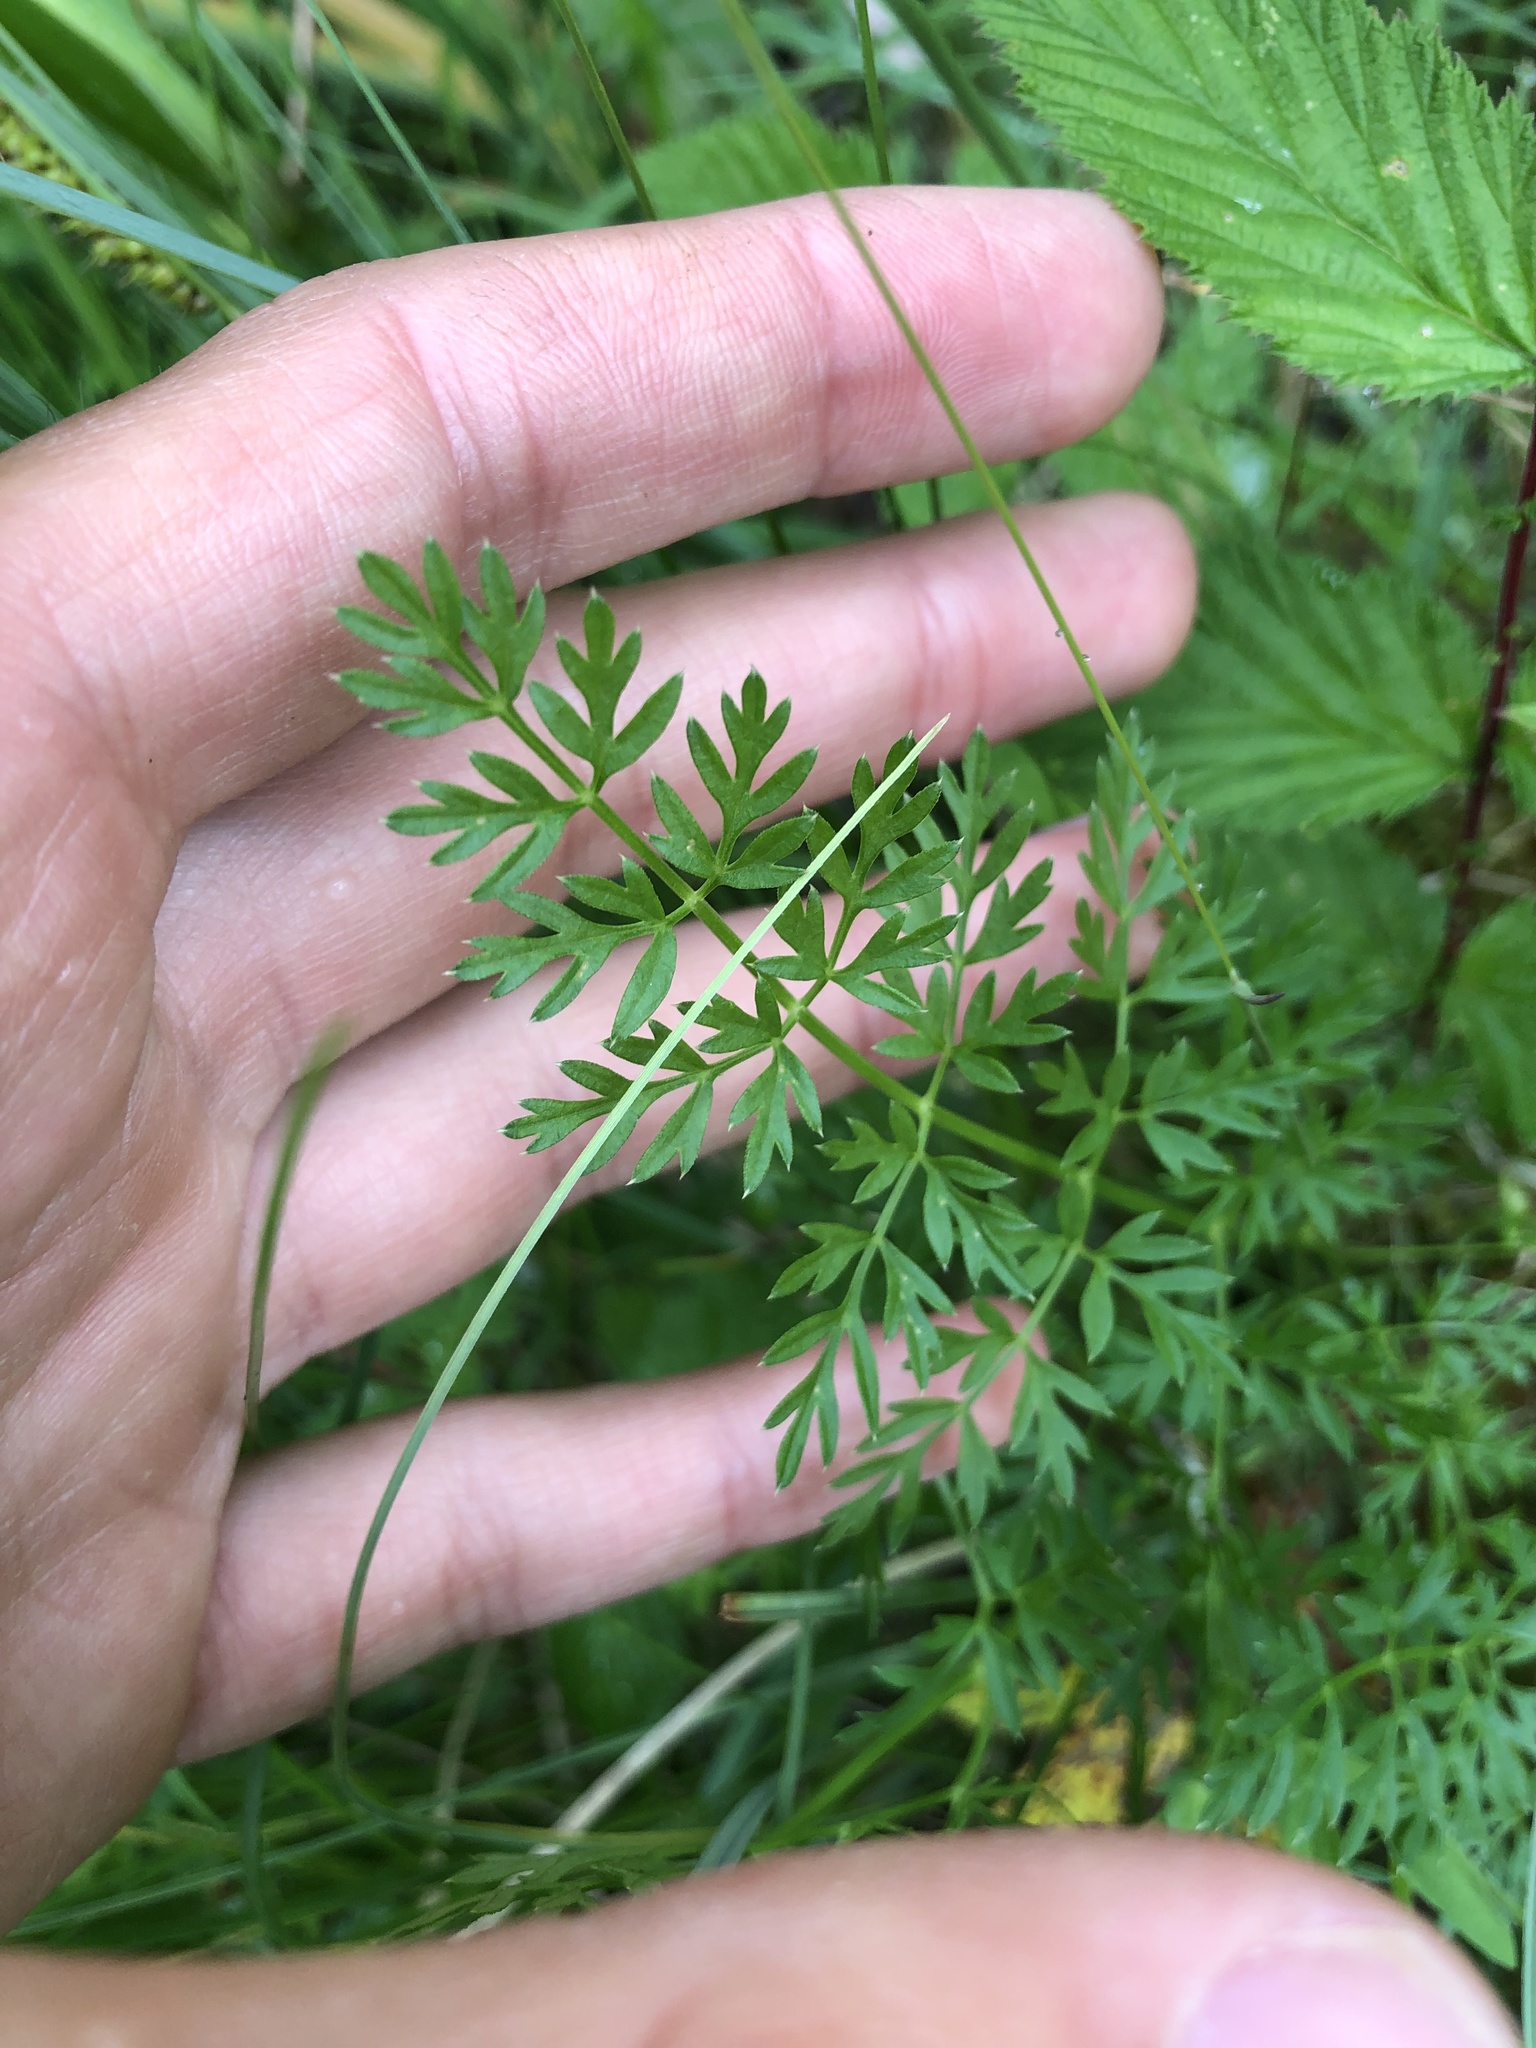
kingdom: Plantae
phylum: Tracheophyta
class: Magnoliopsida
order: Apiales
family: Apiaceae
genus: Selinum
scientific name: Selinum carvifolia
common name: Cambridge milk-parsley
